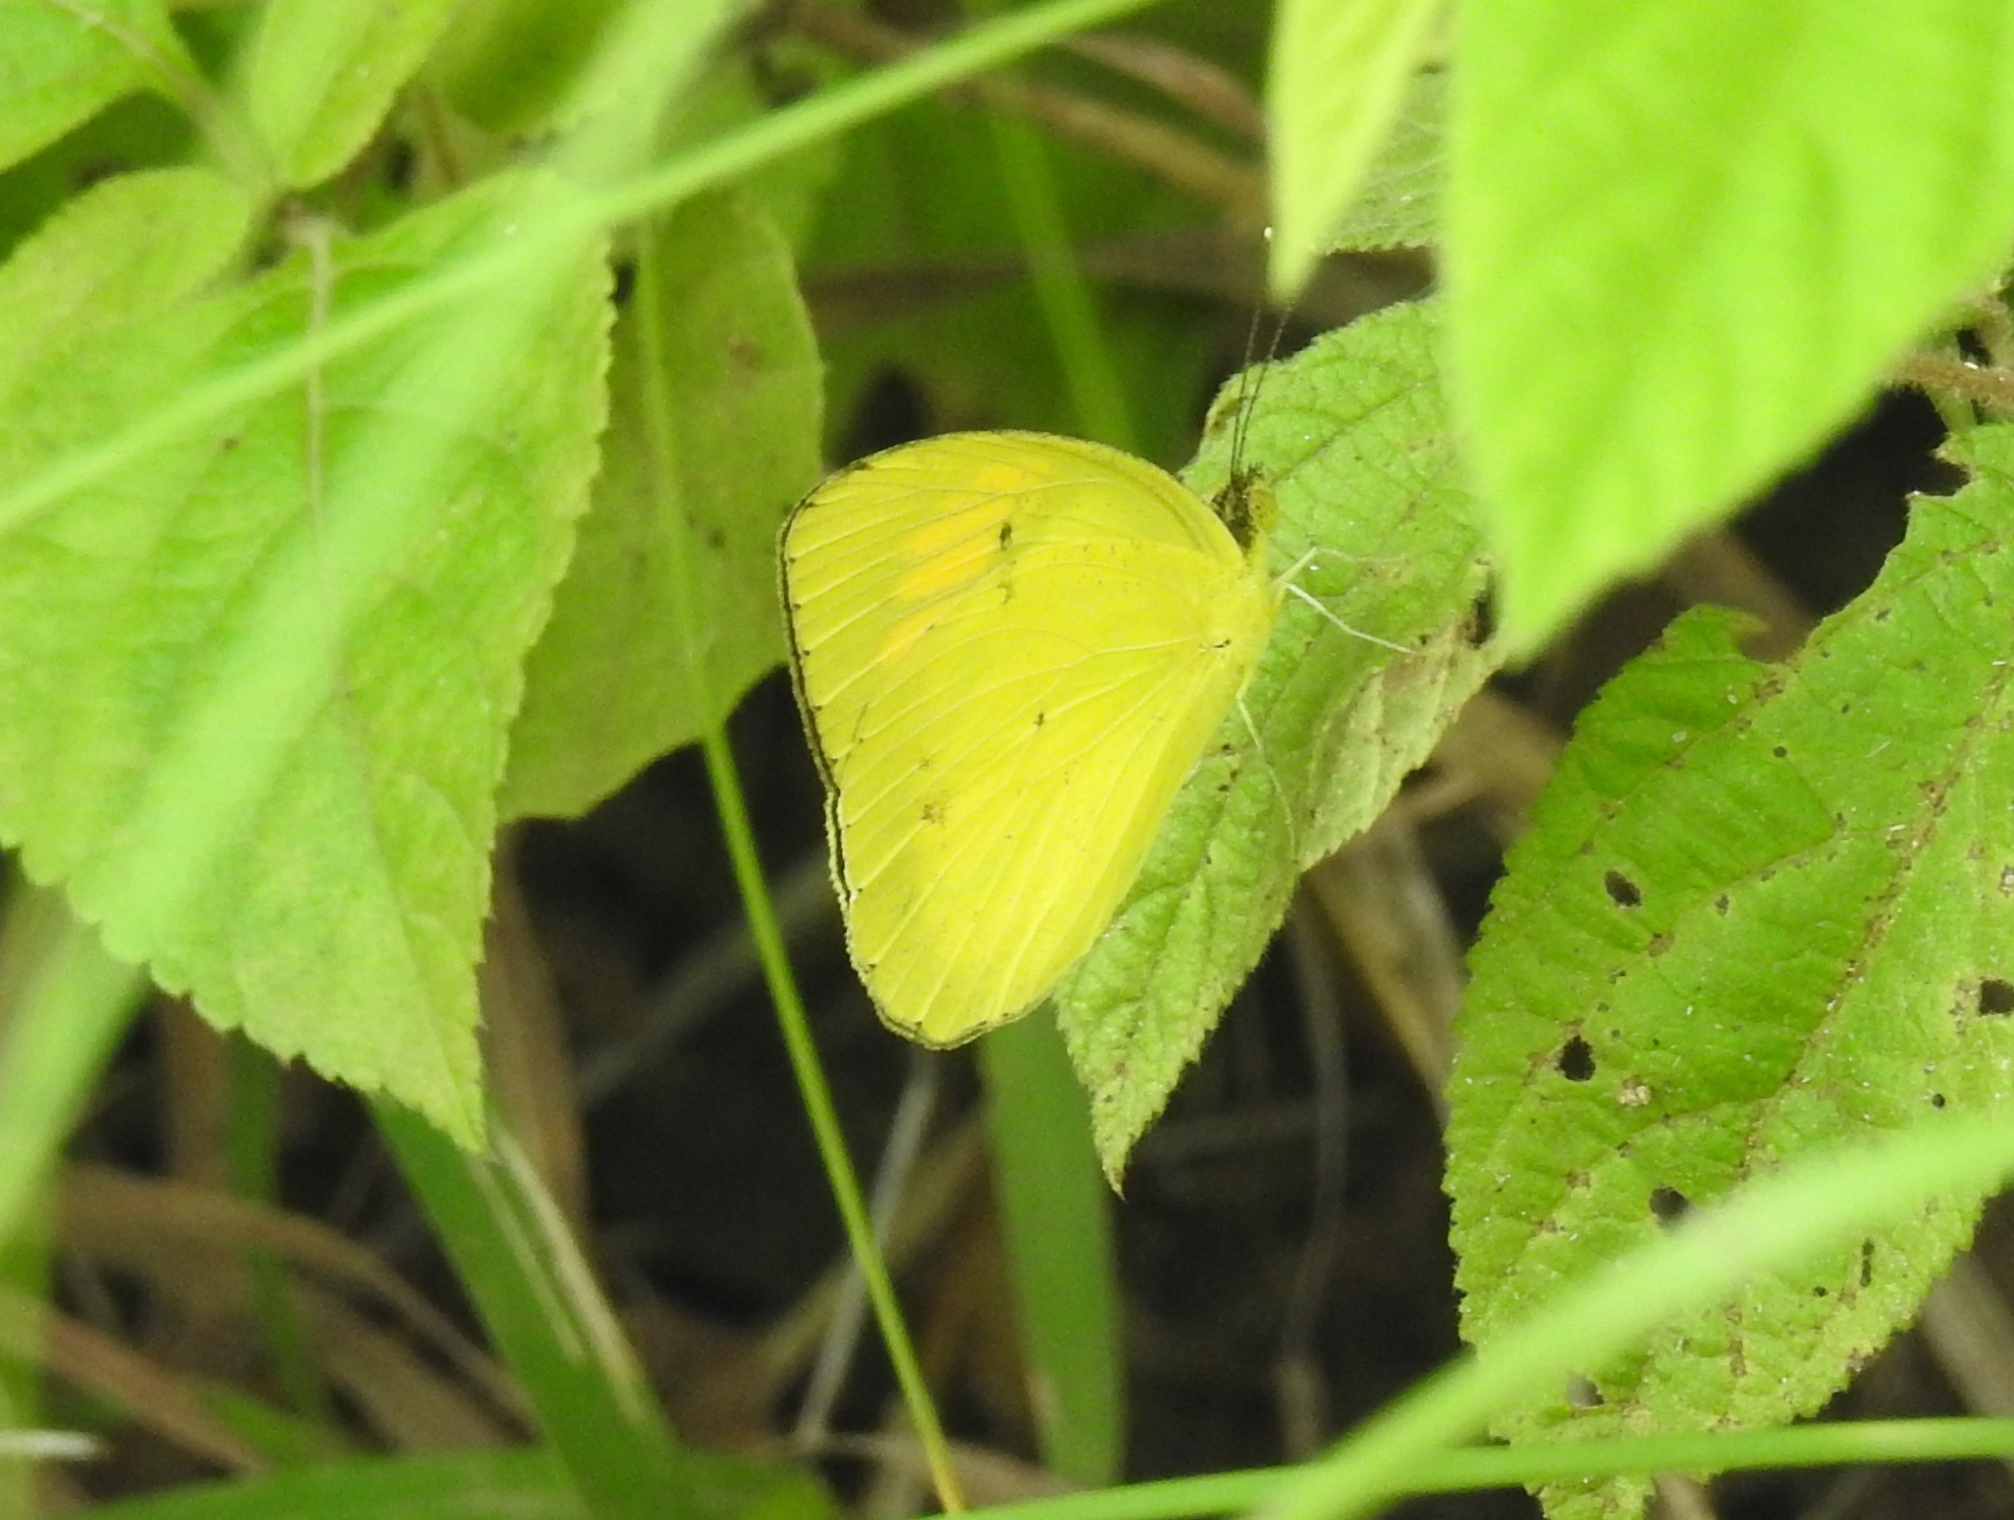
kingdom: Animalia
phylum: Arthropoda
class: Insecta
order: Lepidoptera
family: Pieridae
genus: Ixias
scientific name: Ixias pyrene
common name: Yellow orange tip
